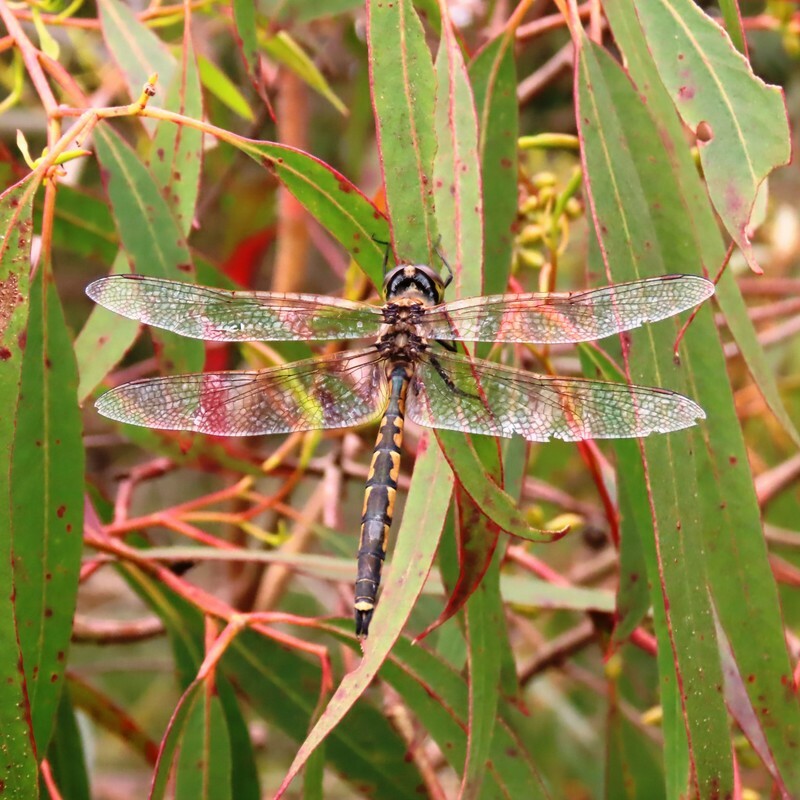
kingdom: Animalia
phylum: Arthropoda
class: Insecta
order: Odonata
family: Corduliidae
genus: Hemicordulia
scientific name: Hemicordulia tau
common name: Tau emerald
